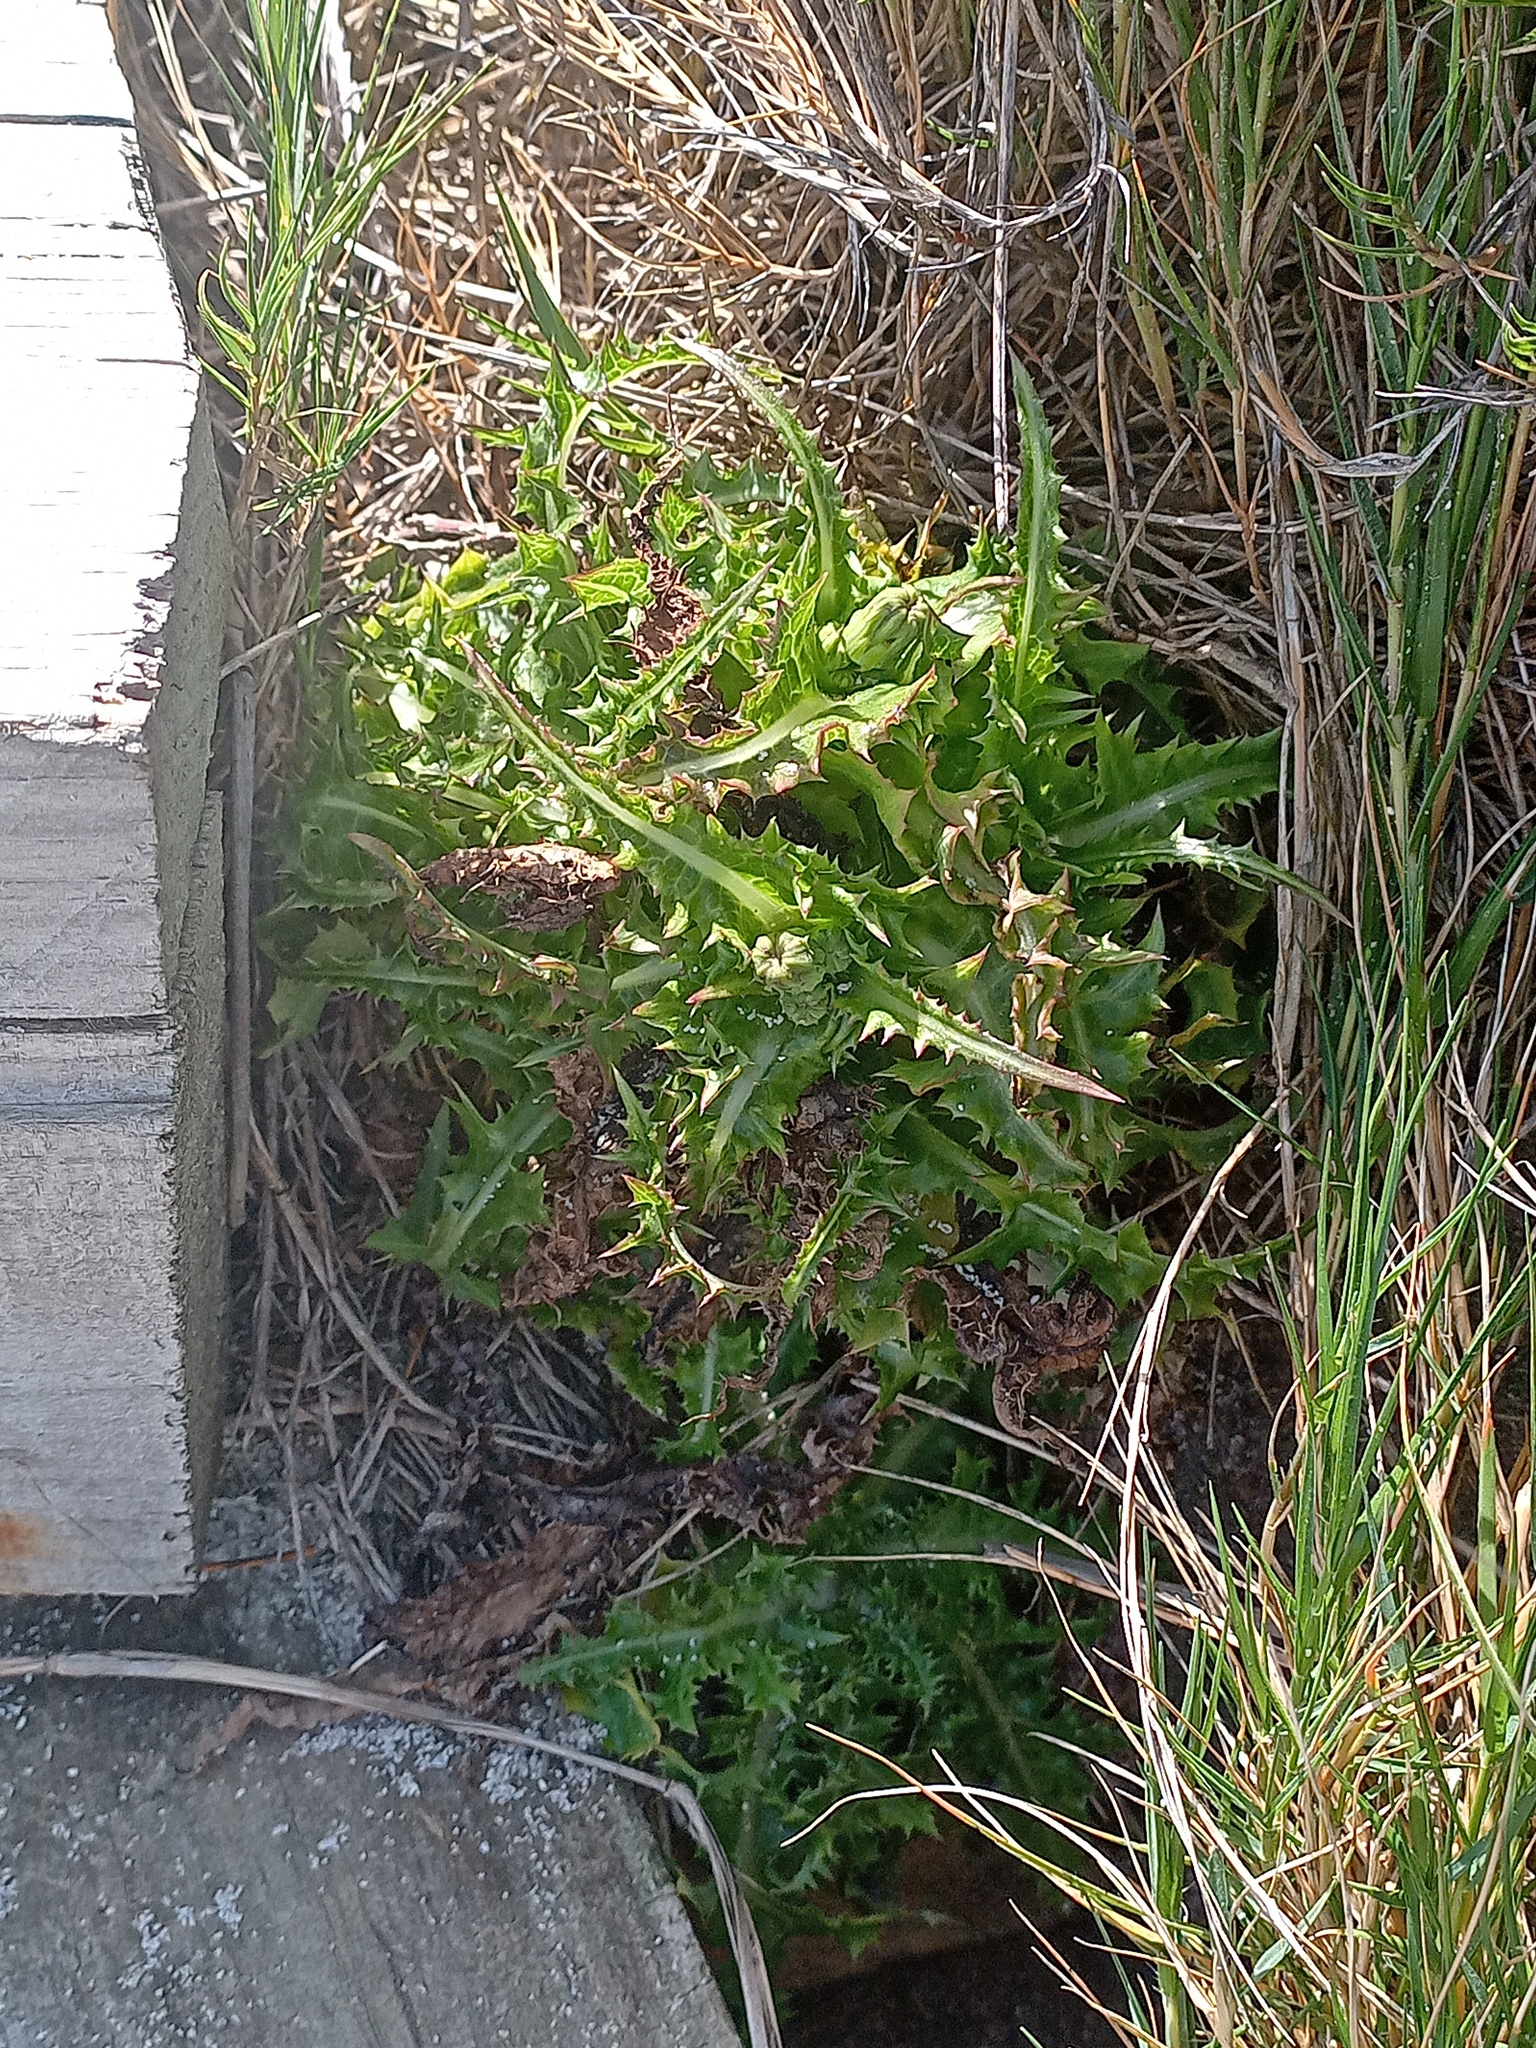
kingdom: Plantae
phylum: Tracheophyta
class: Magnoliopsida
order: Asterales
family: Asteraceae
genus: Sonchus
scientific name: Sonchus asper
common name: Prickly sow-thistle
